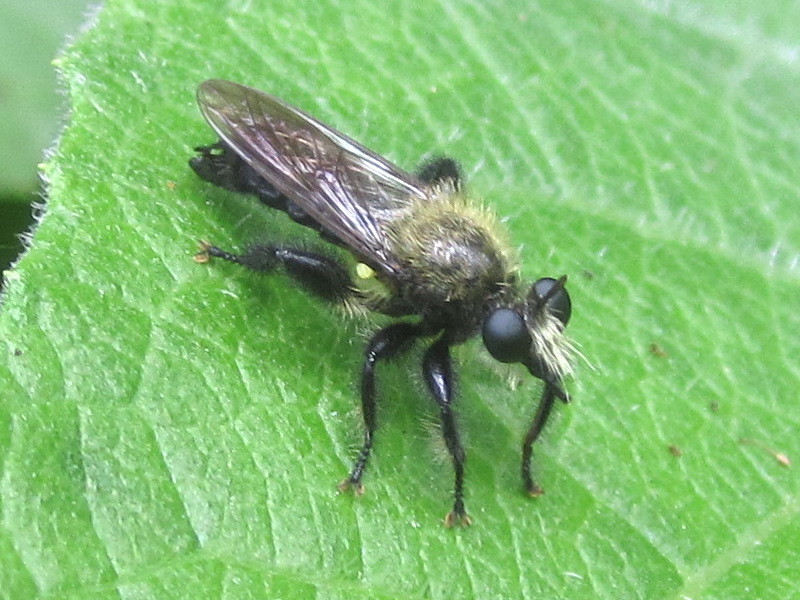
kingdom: Animalia
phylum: Arthropoda
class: Insecta
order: Diptera
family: Asilidae
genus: Laphria
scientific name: Laphria flavicollis
